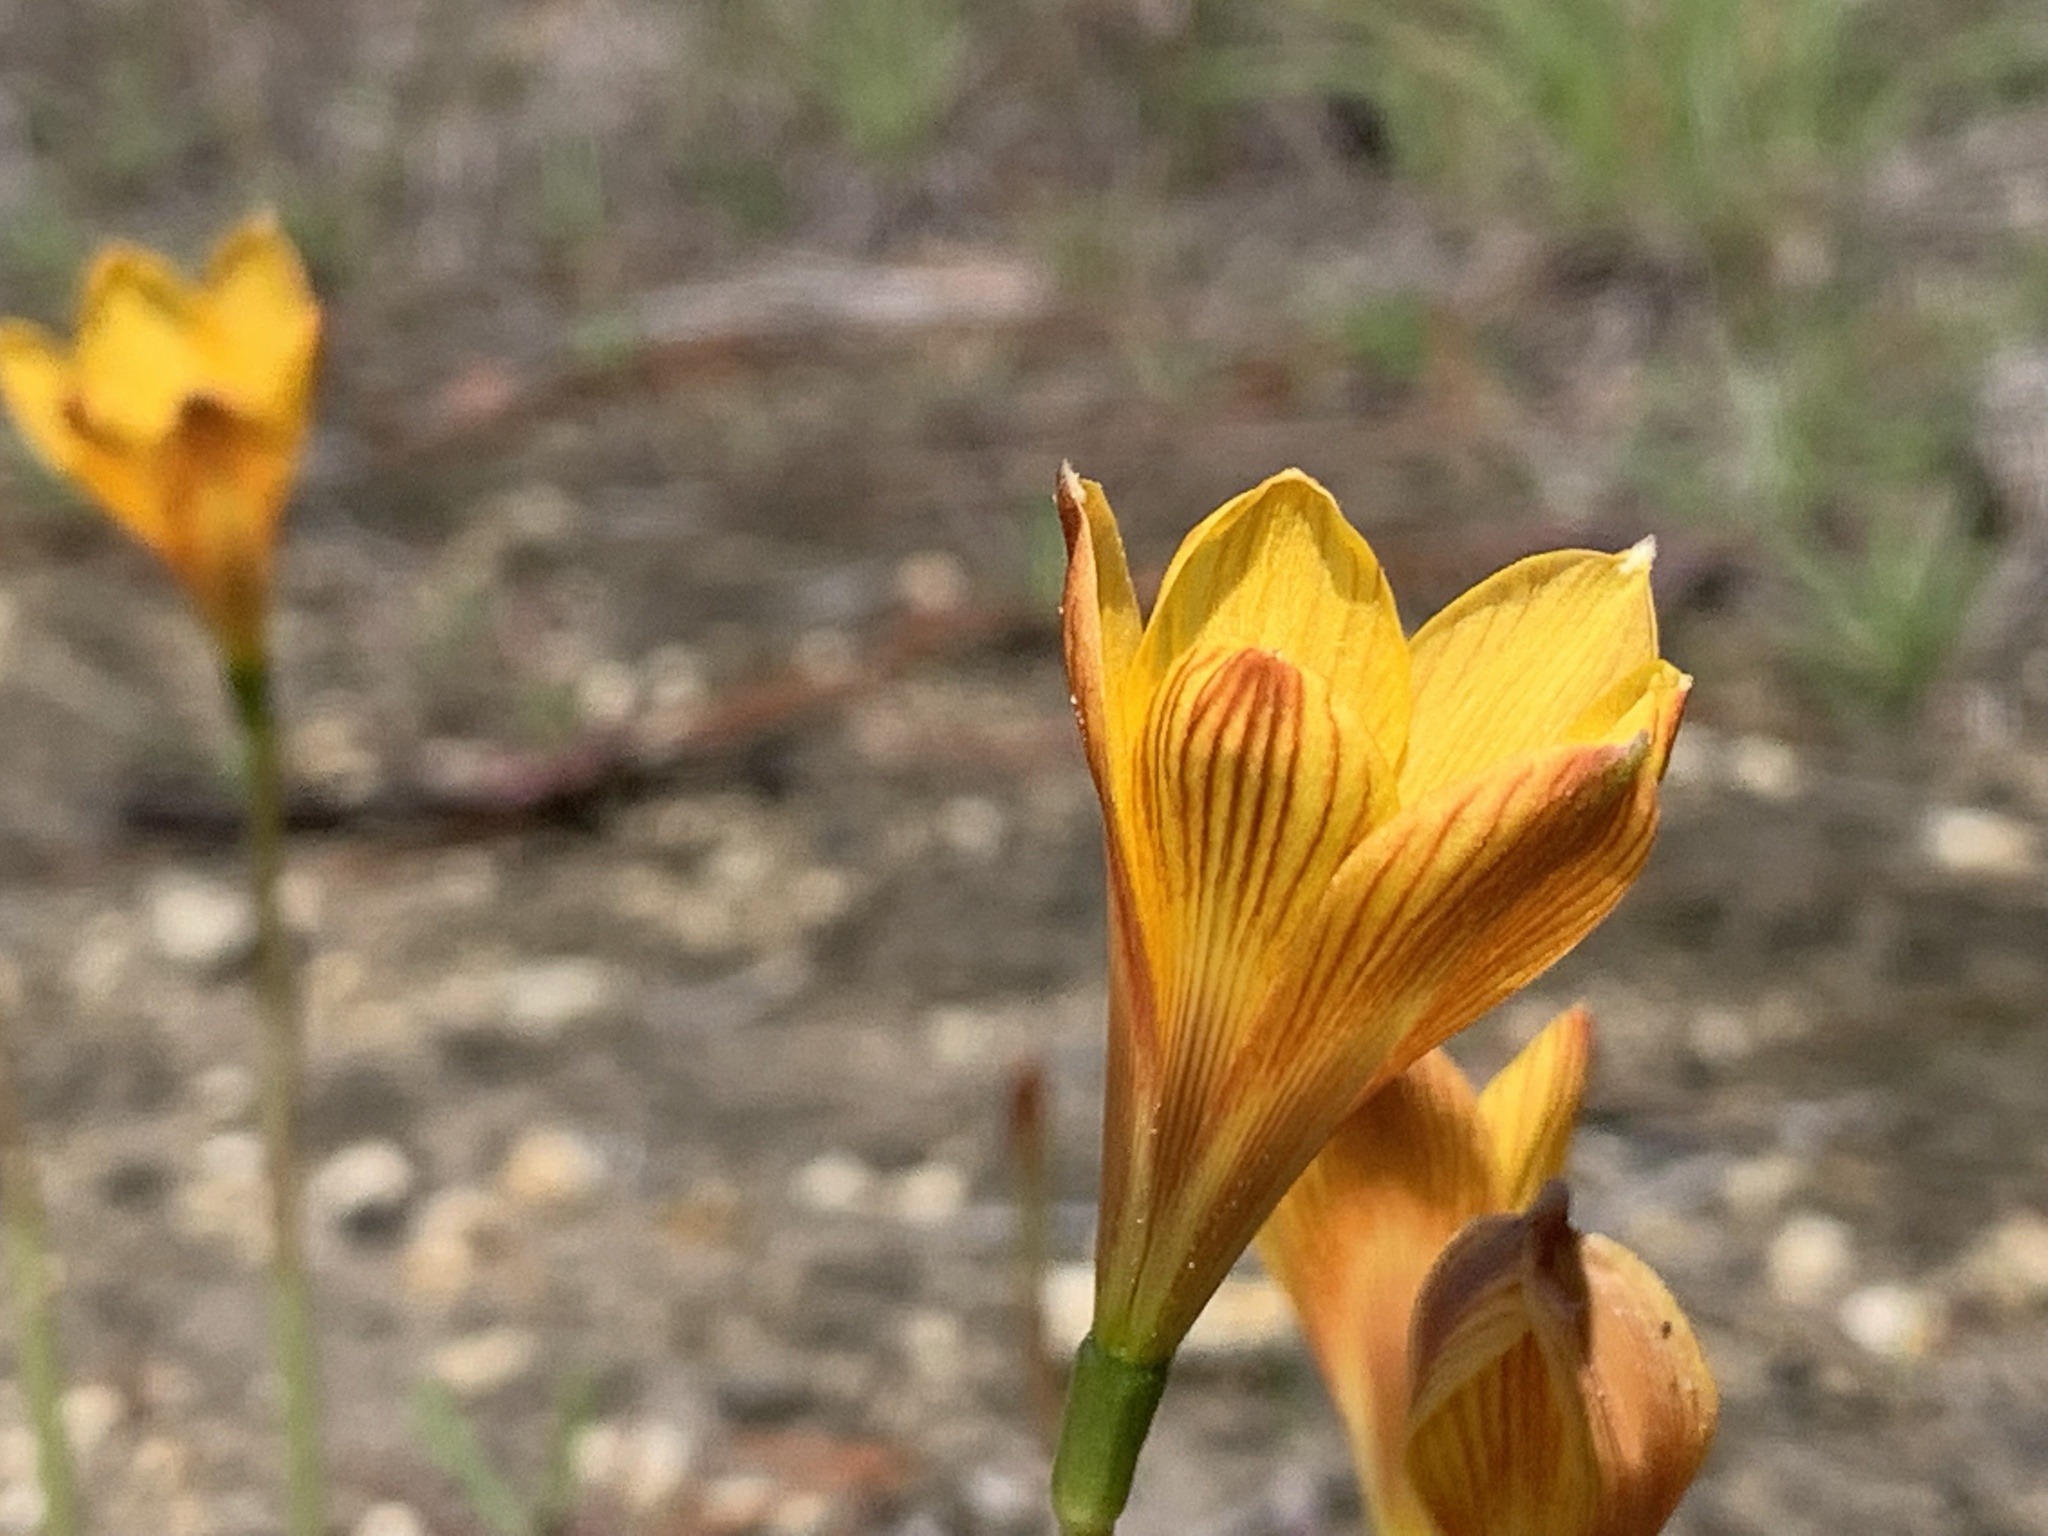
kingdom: Plantae
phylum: Tracheophyta
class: Liliopsida
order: Asparagales
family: Amaryllidaceae
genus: Zephyranthes
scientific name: Zephyranthes tubispatha
